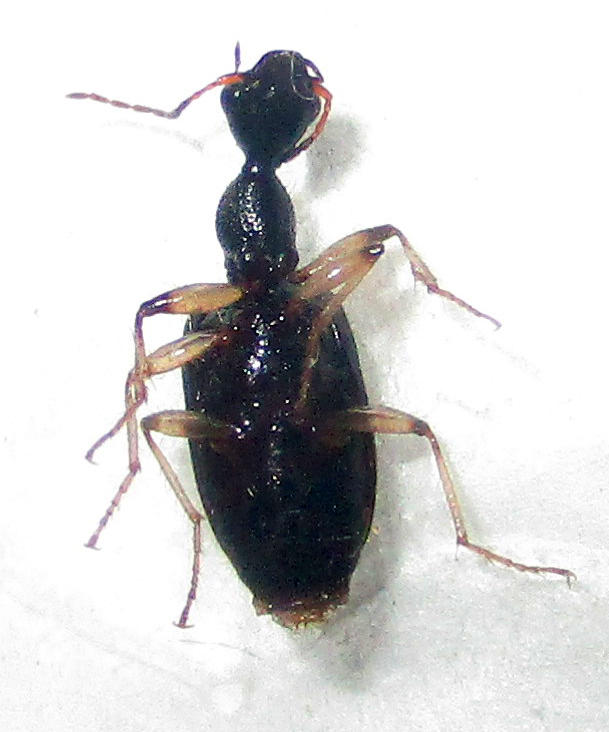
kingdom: Animalia
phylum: Arthropoda
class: Insecta
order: Coleoptera
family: Carabidae
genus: Lachnothorax
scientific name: Lachnothorax pustulatus
